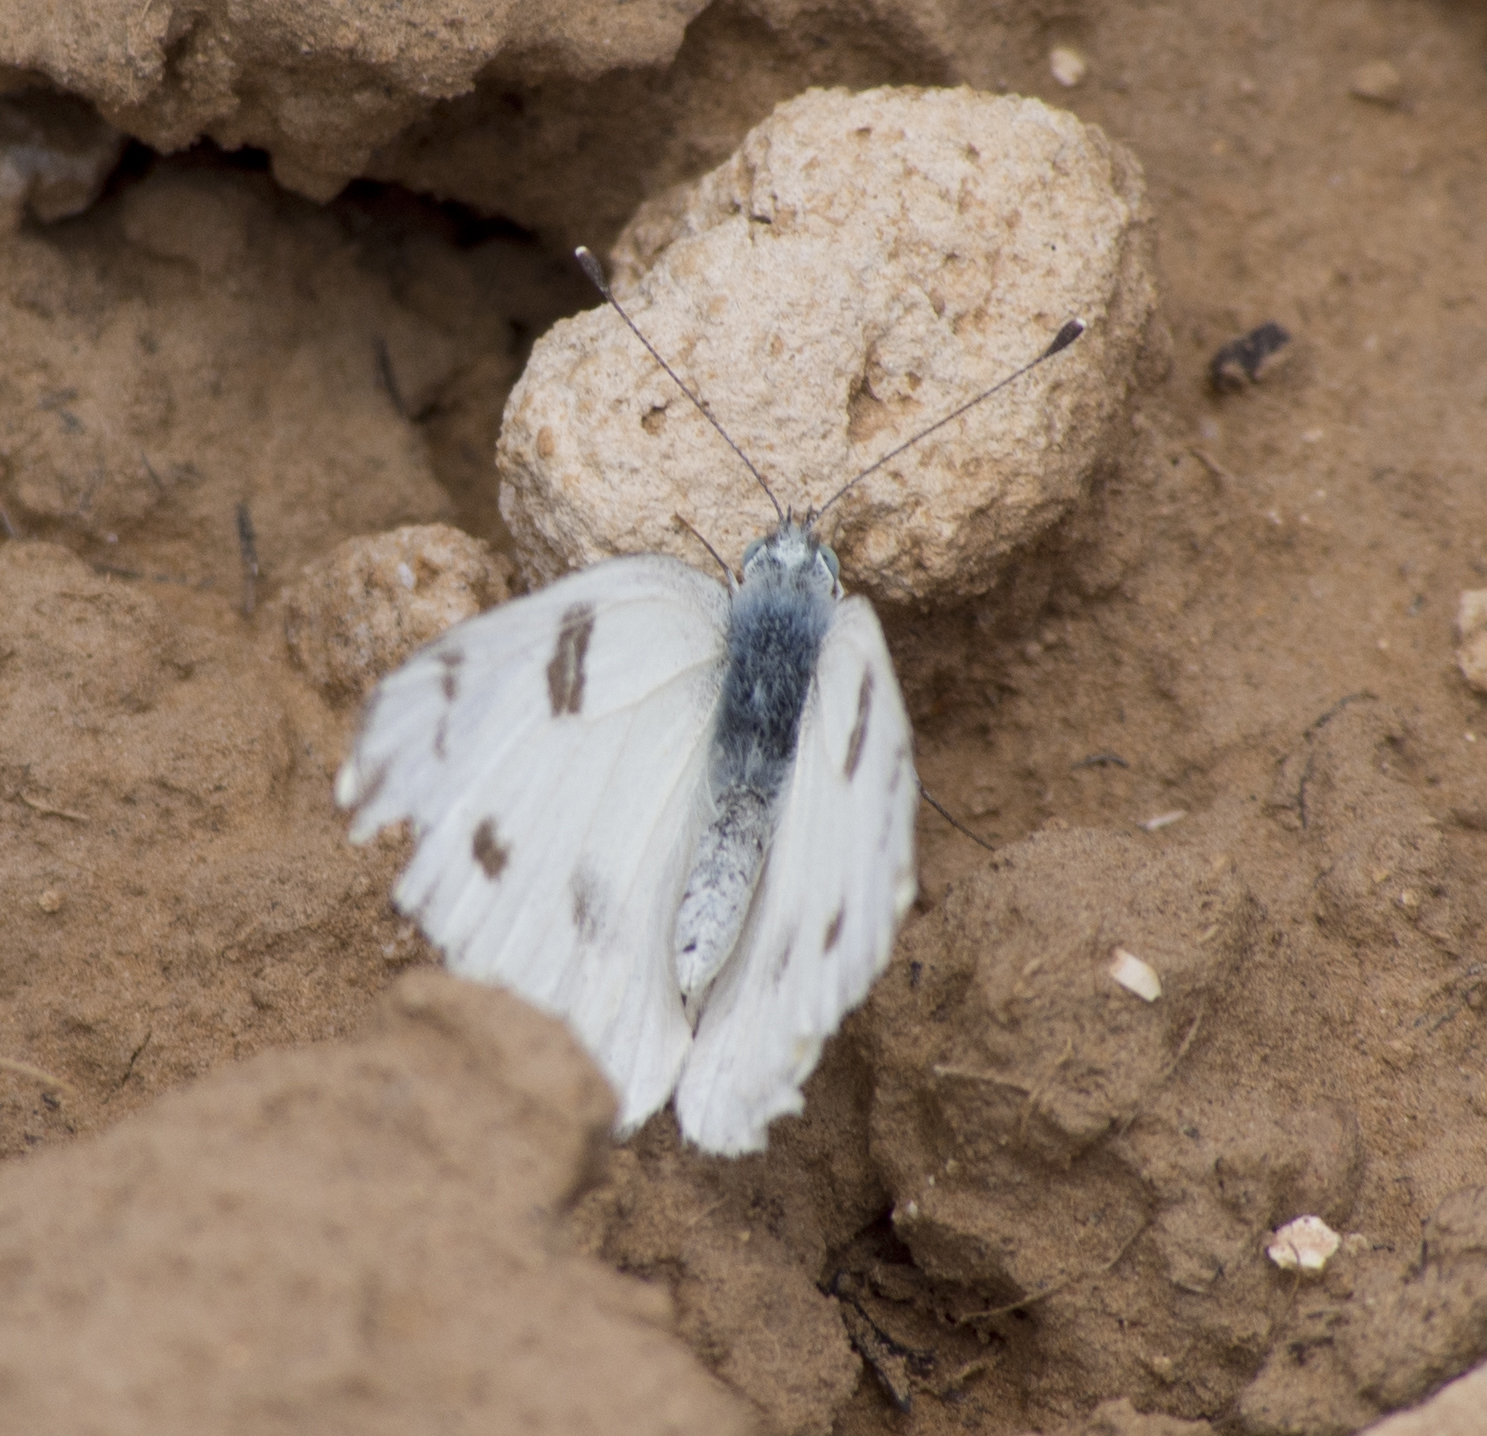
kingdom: Animalia
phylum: Arthropoda
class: Insecta
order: Lepidoptera
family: Pieridae
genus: Pontia
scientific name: Pontia protodice
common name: Checkered white
